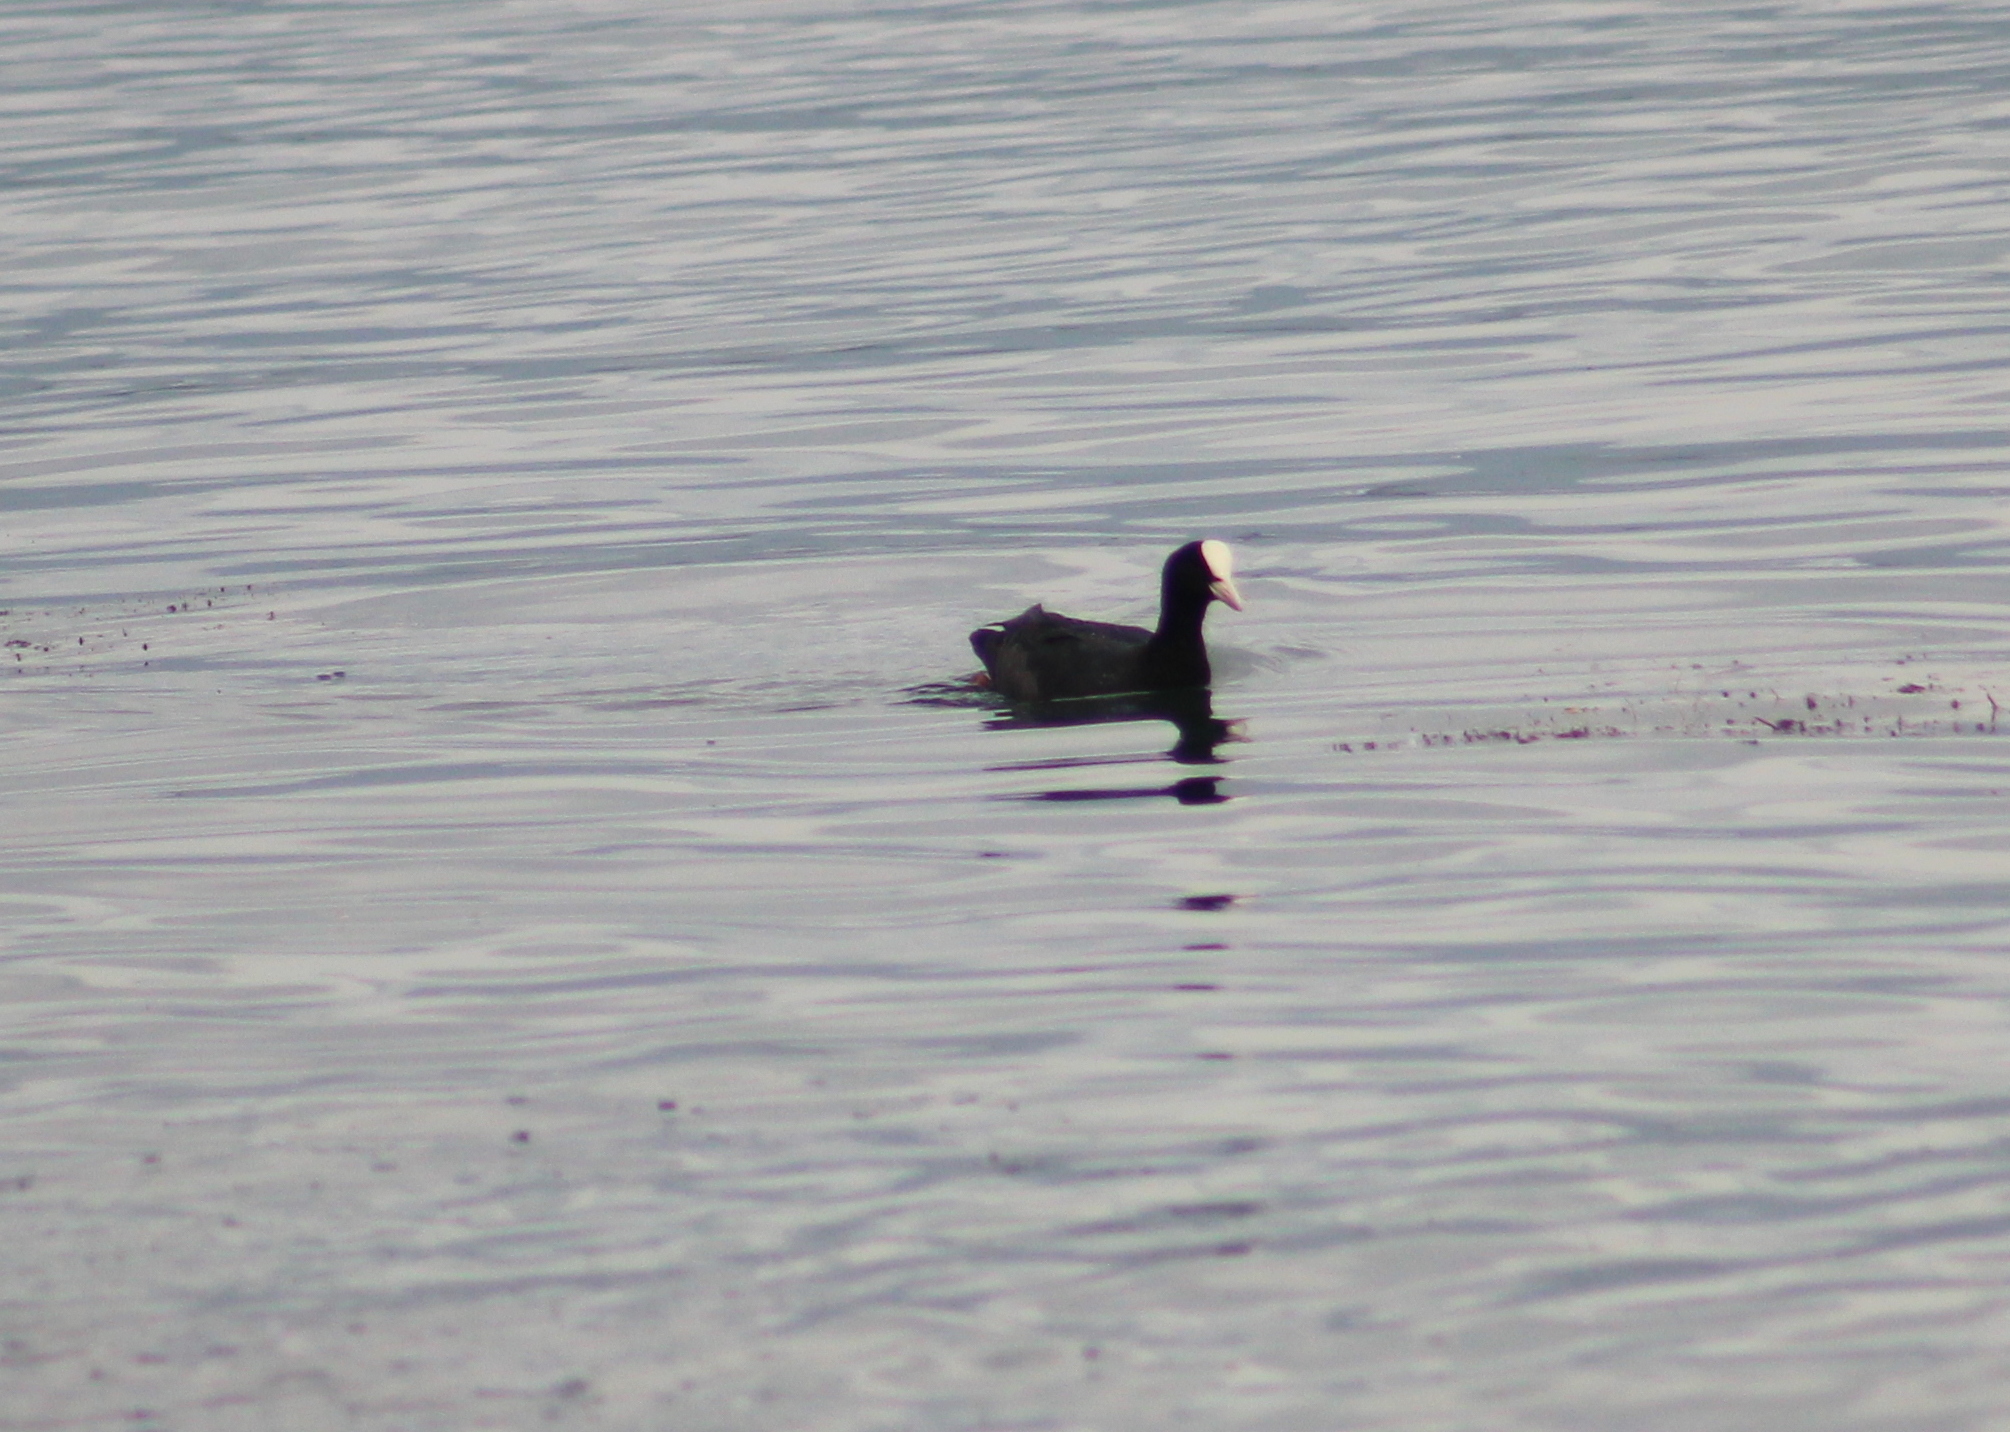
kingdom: Animalia
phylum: Chordata
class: Aves
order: Gruiformes
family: Rallidae
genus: Fulica
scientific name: Fulica atra
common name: Eurasian coot
